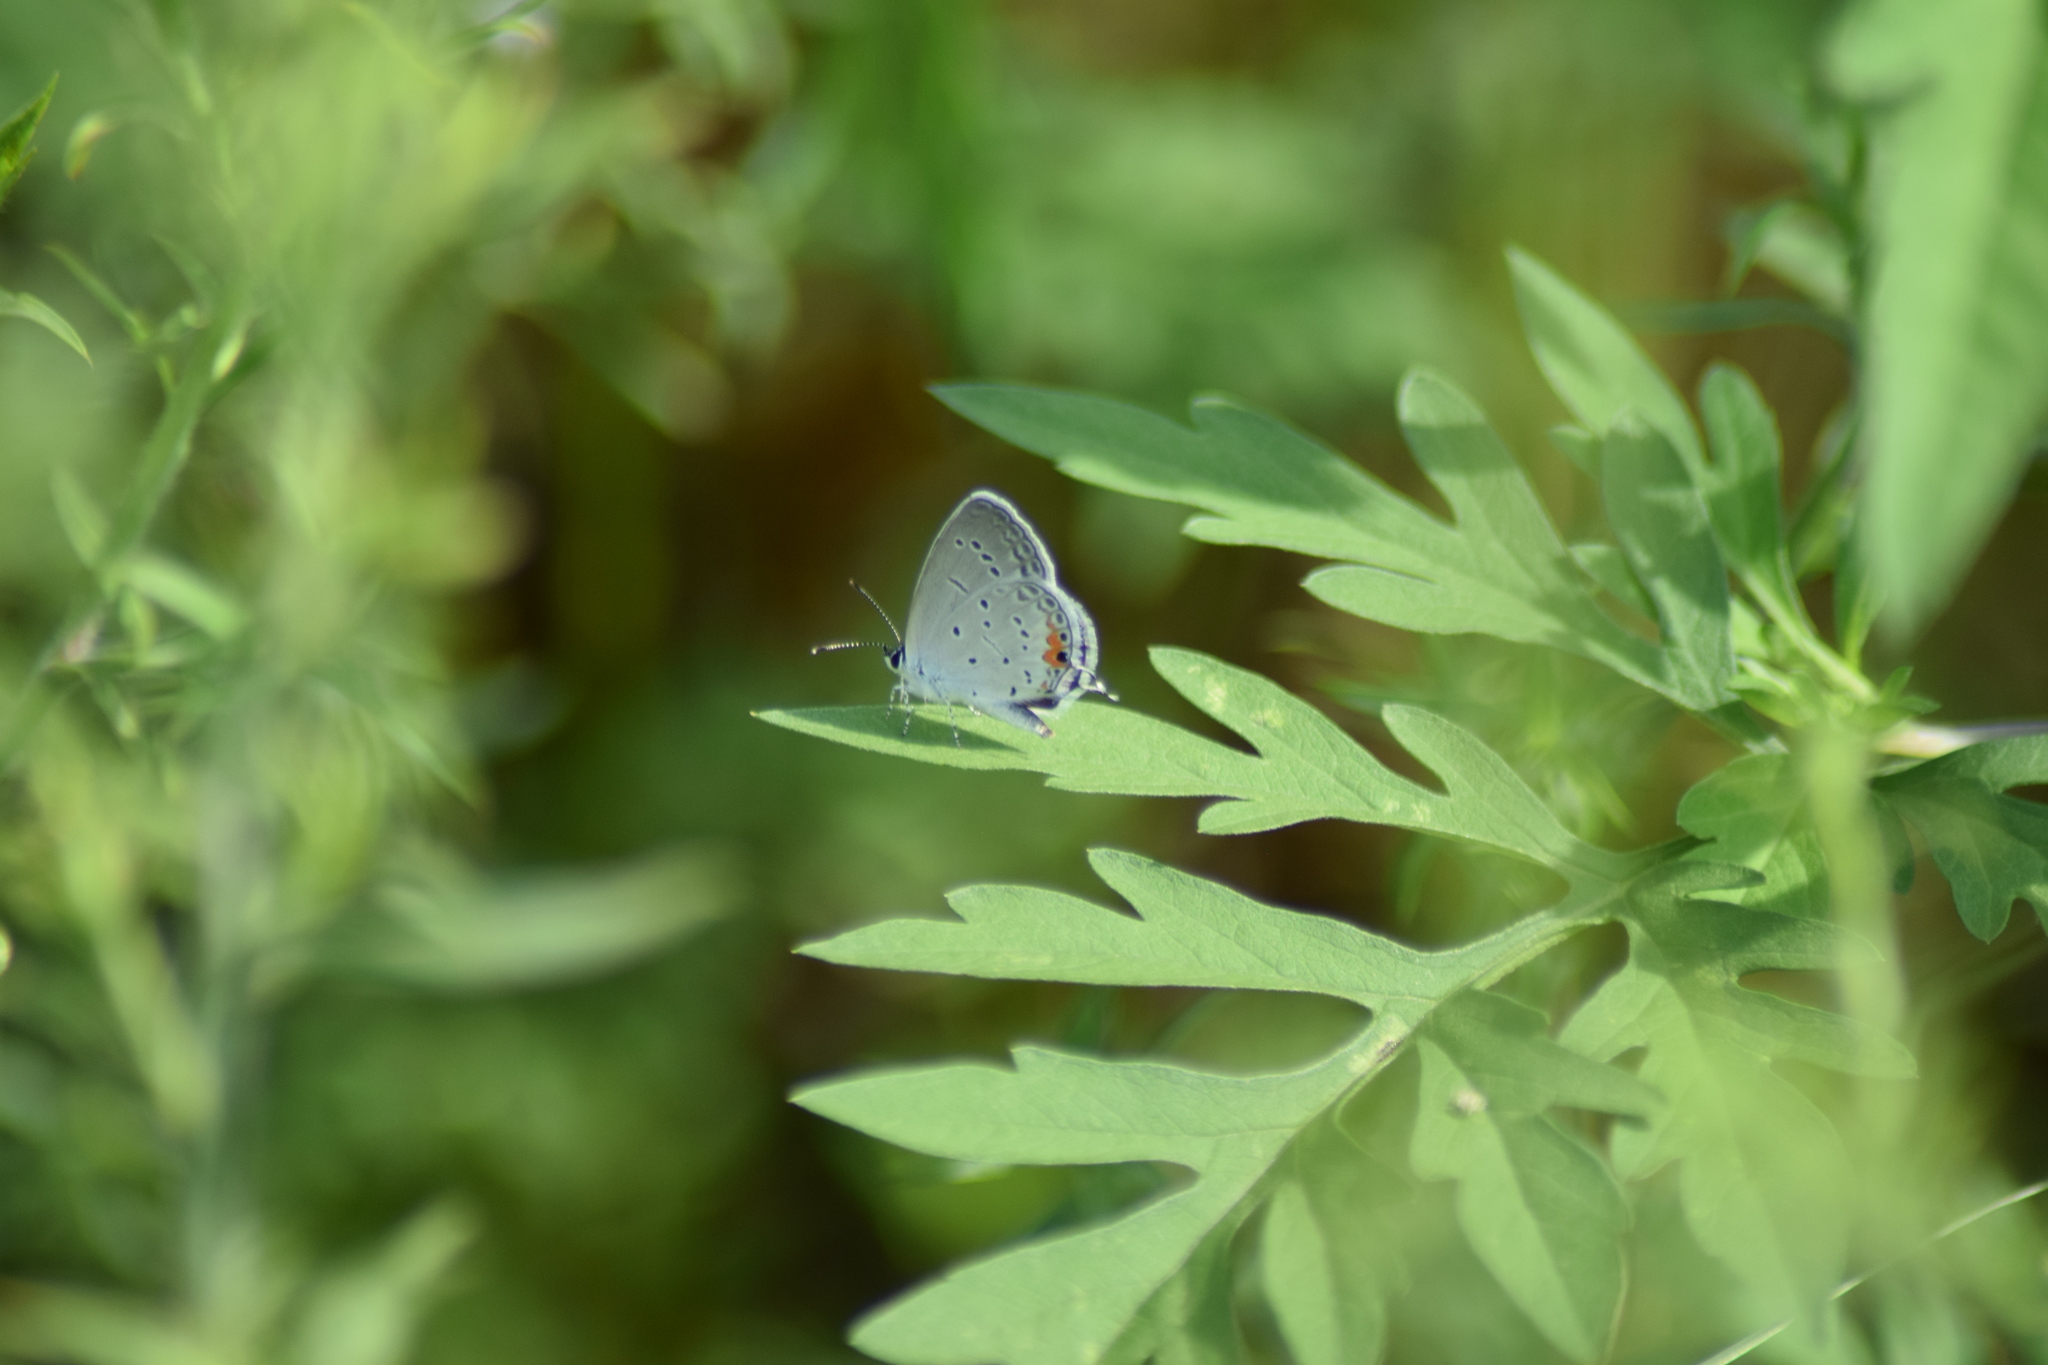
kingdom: Animalia
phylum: Arthropoda
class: Insecta
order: Lepidoptera
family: Lycaenidae
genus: Elkalyce
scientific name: Elkalyce comyntas
